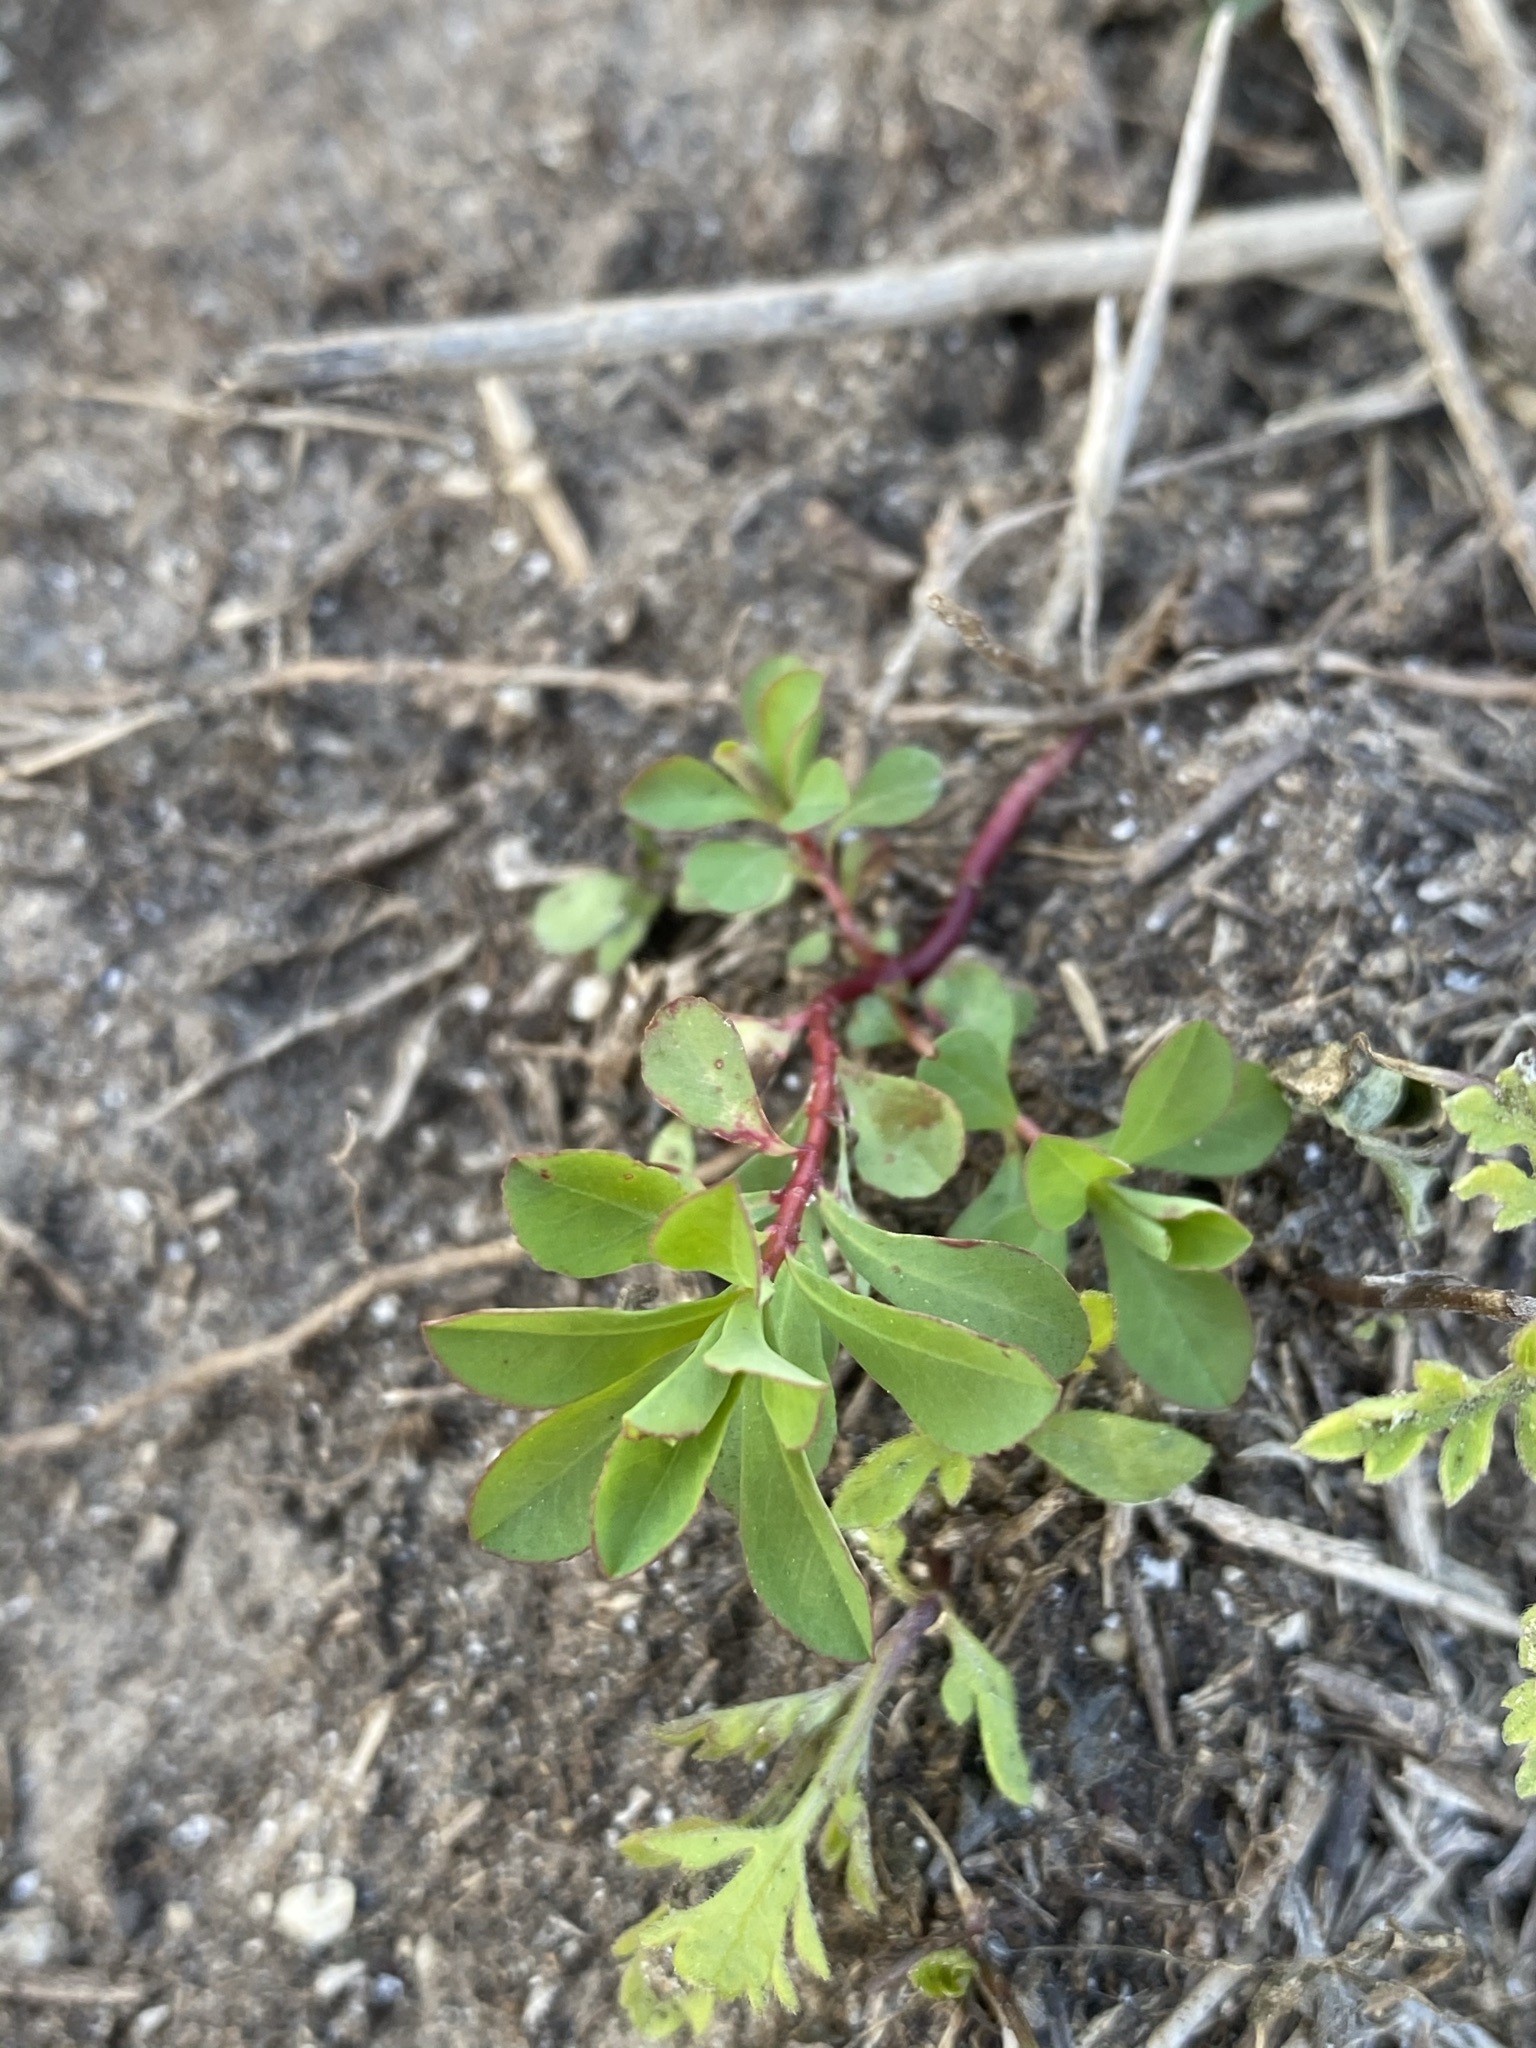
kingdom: Plantae
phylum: Tracheophyta
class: Magnoliopsida
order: Malpighiales
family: Euphorbiaceae
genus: Euphorbia
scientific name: Euphorbia spathulata
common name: Blunt spurge
